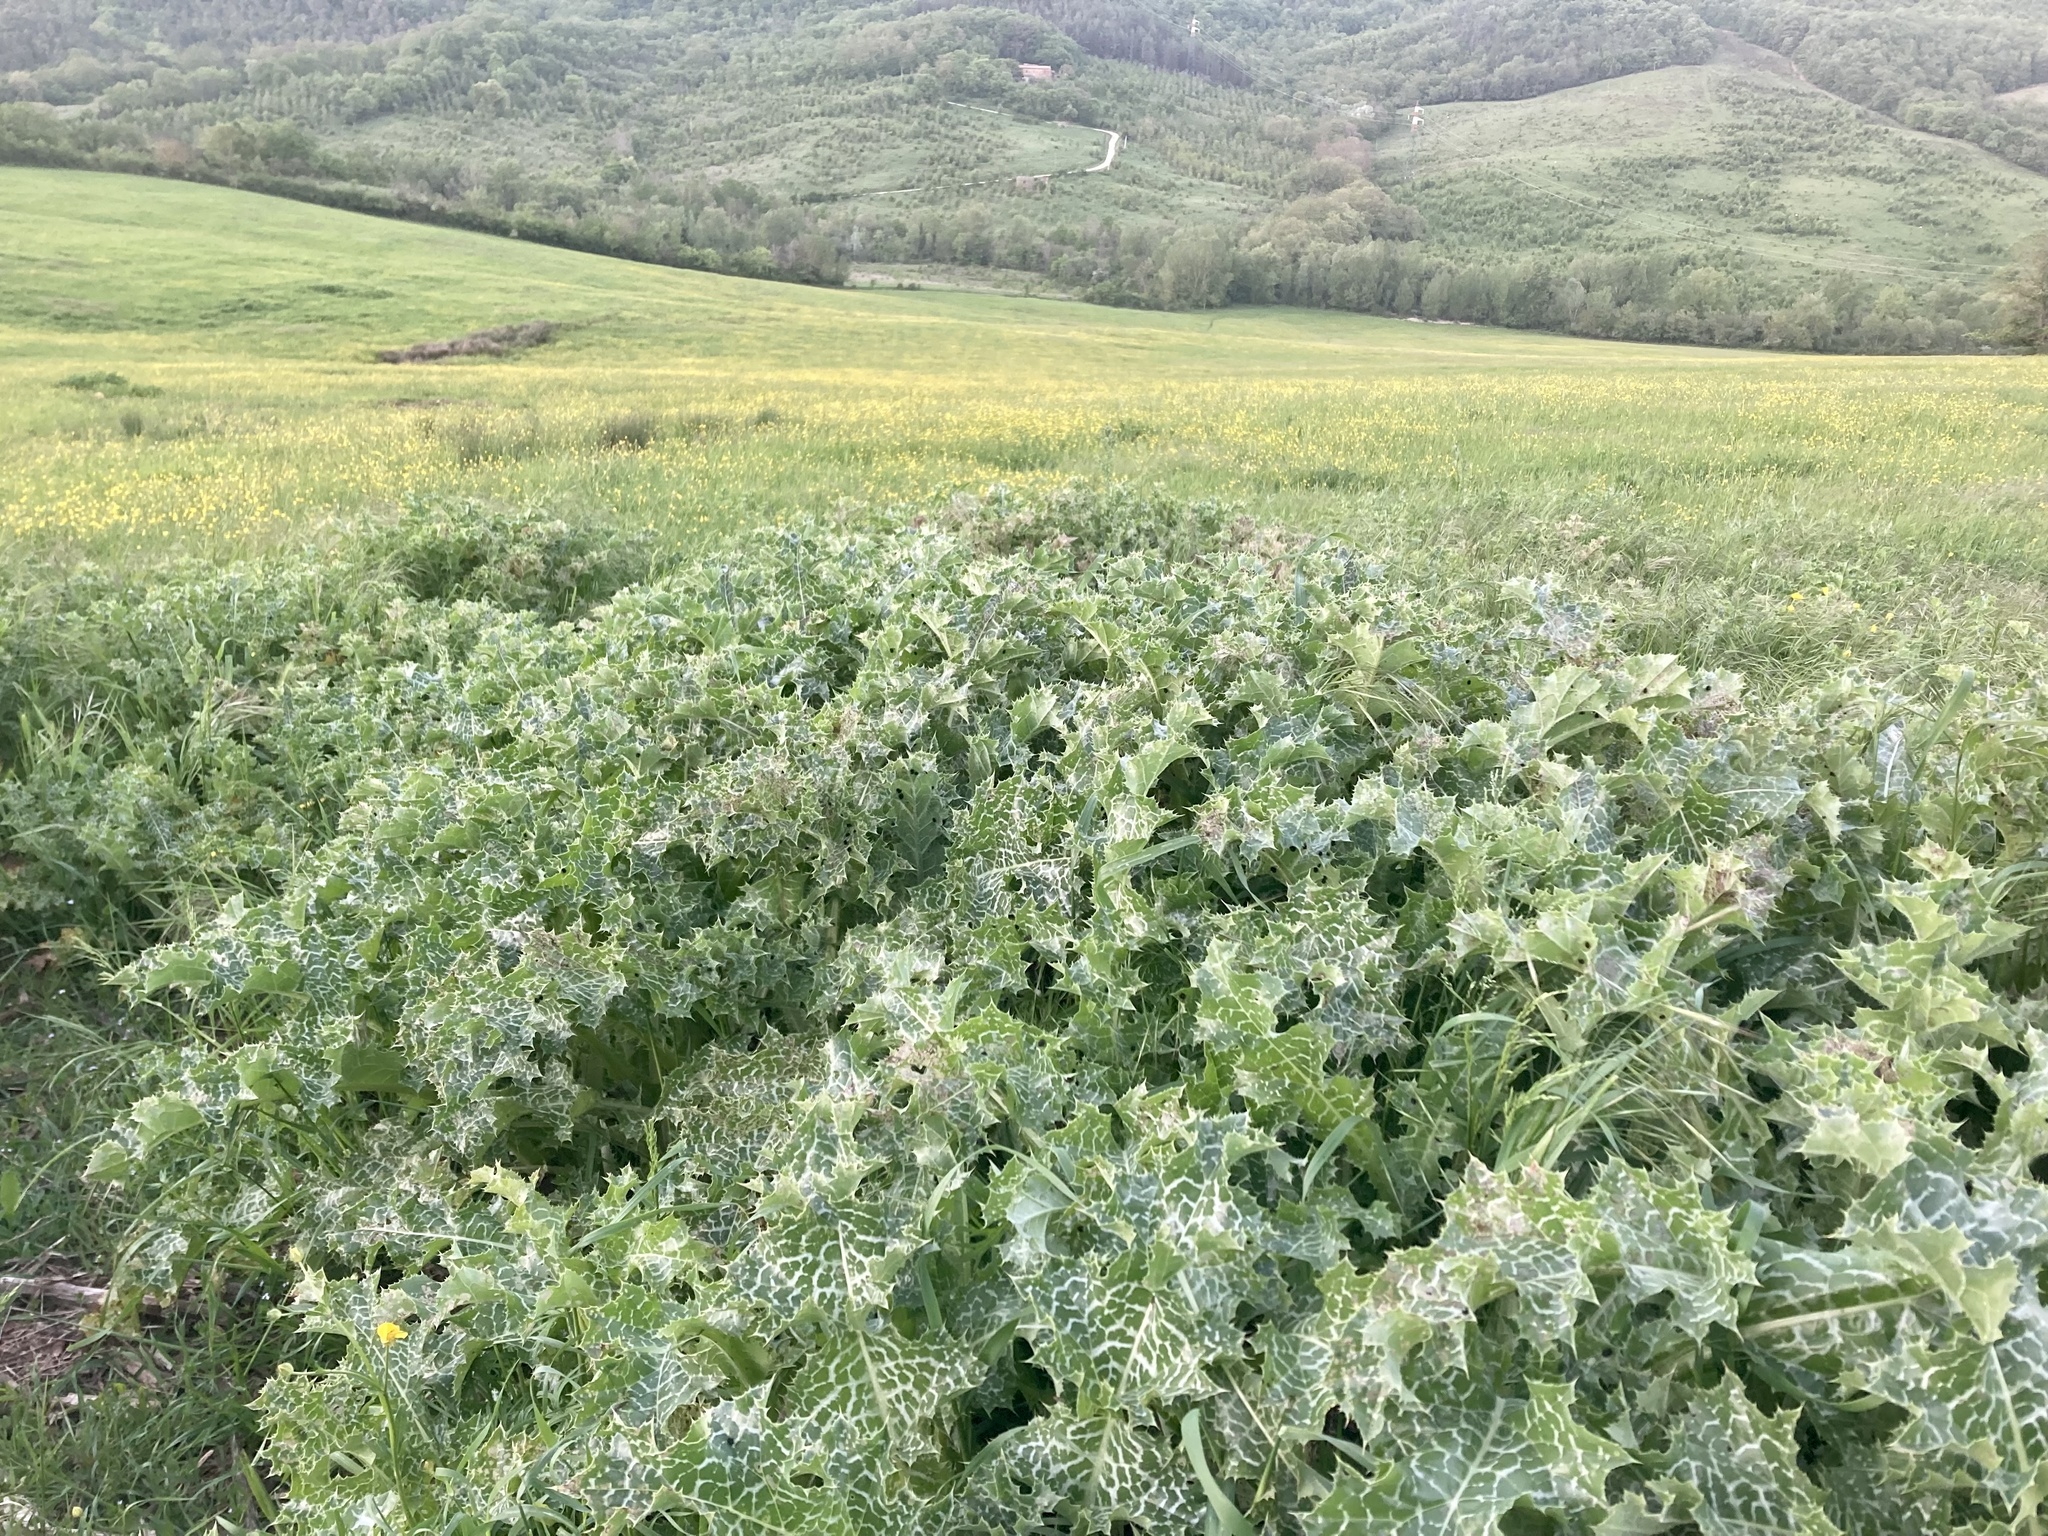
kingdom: Plantae
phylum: Tracheophyta
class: Magnoliopsida
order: Asterales
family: Asteraceae
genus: Silybum
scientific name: Silybum marianum
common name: Milk thistle
